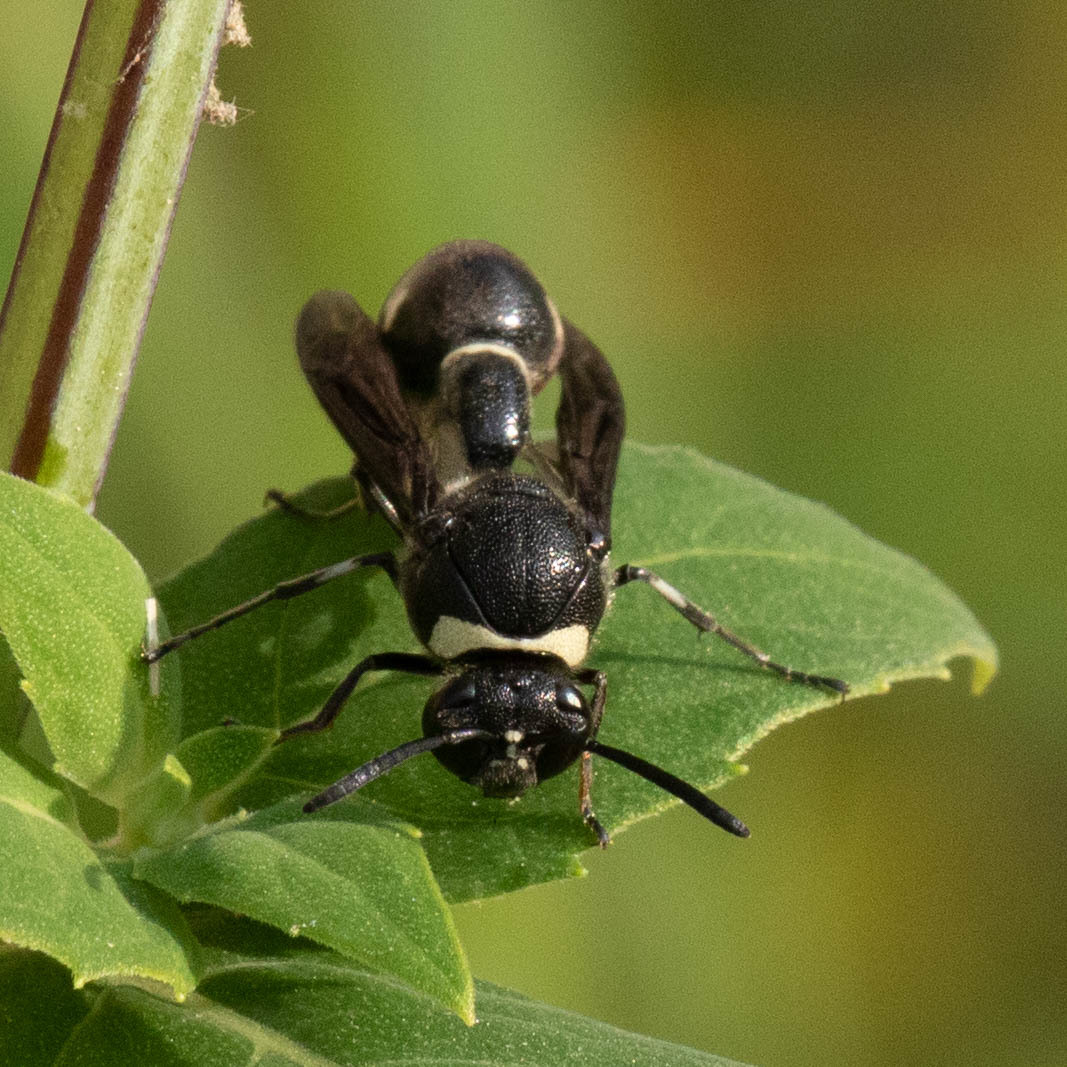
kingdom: Animalia
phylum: Arthropoda
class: Insecta
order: Hymenoptera
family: Vespidae
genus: Eumenes
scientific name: Eumenes fraternus
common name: Fraternal potter wasp
